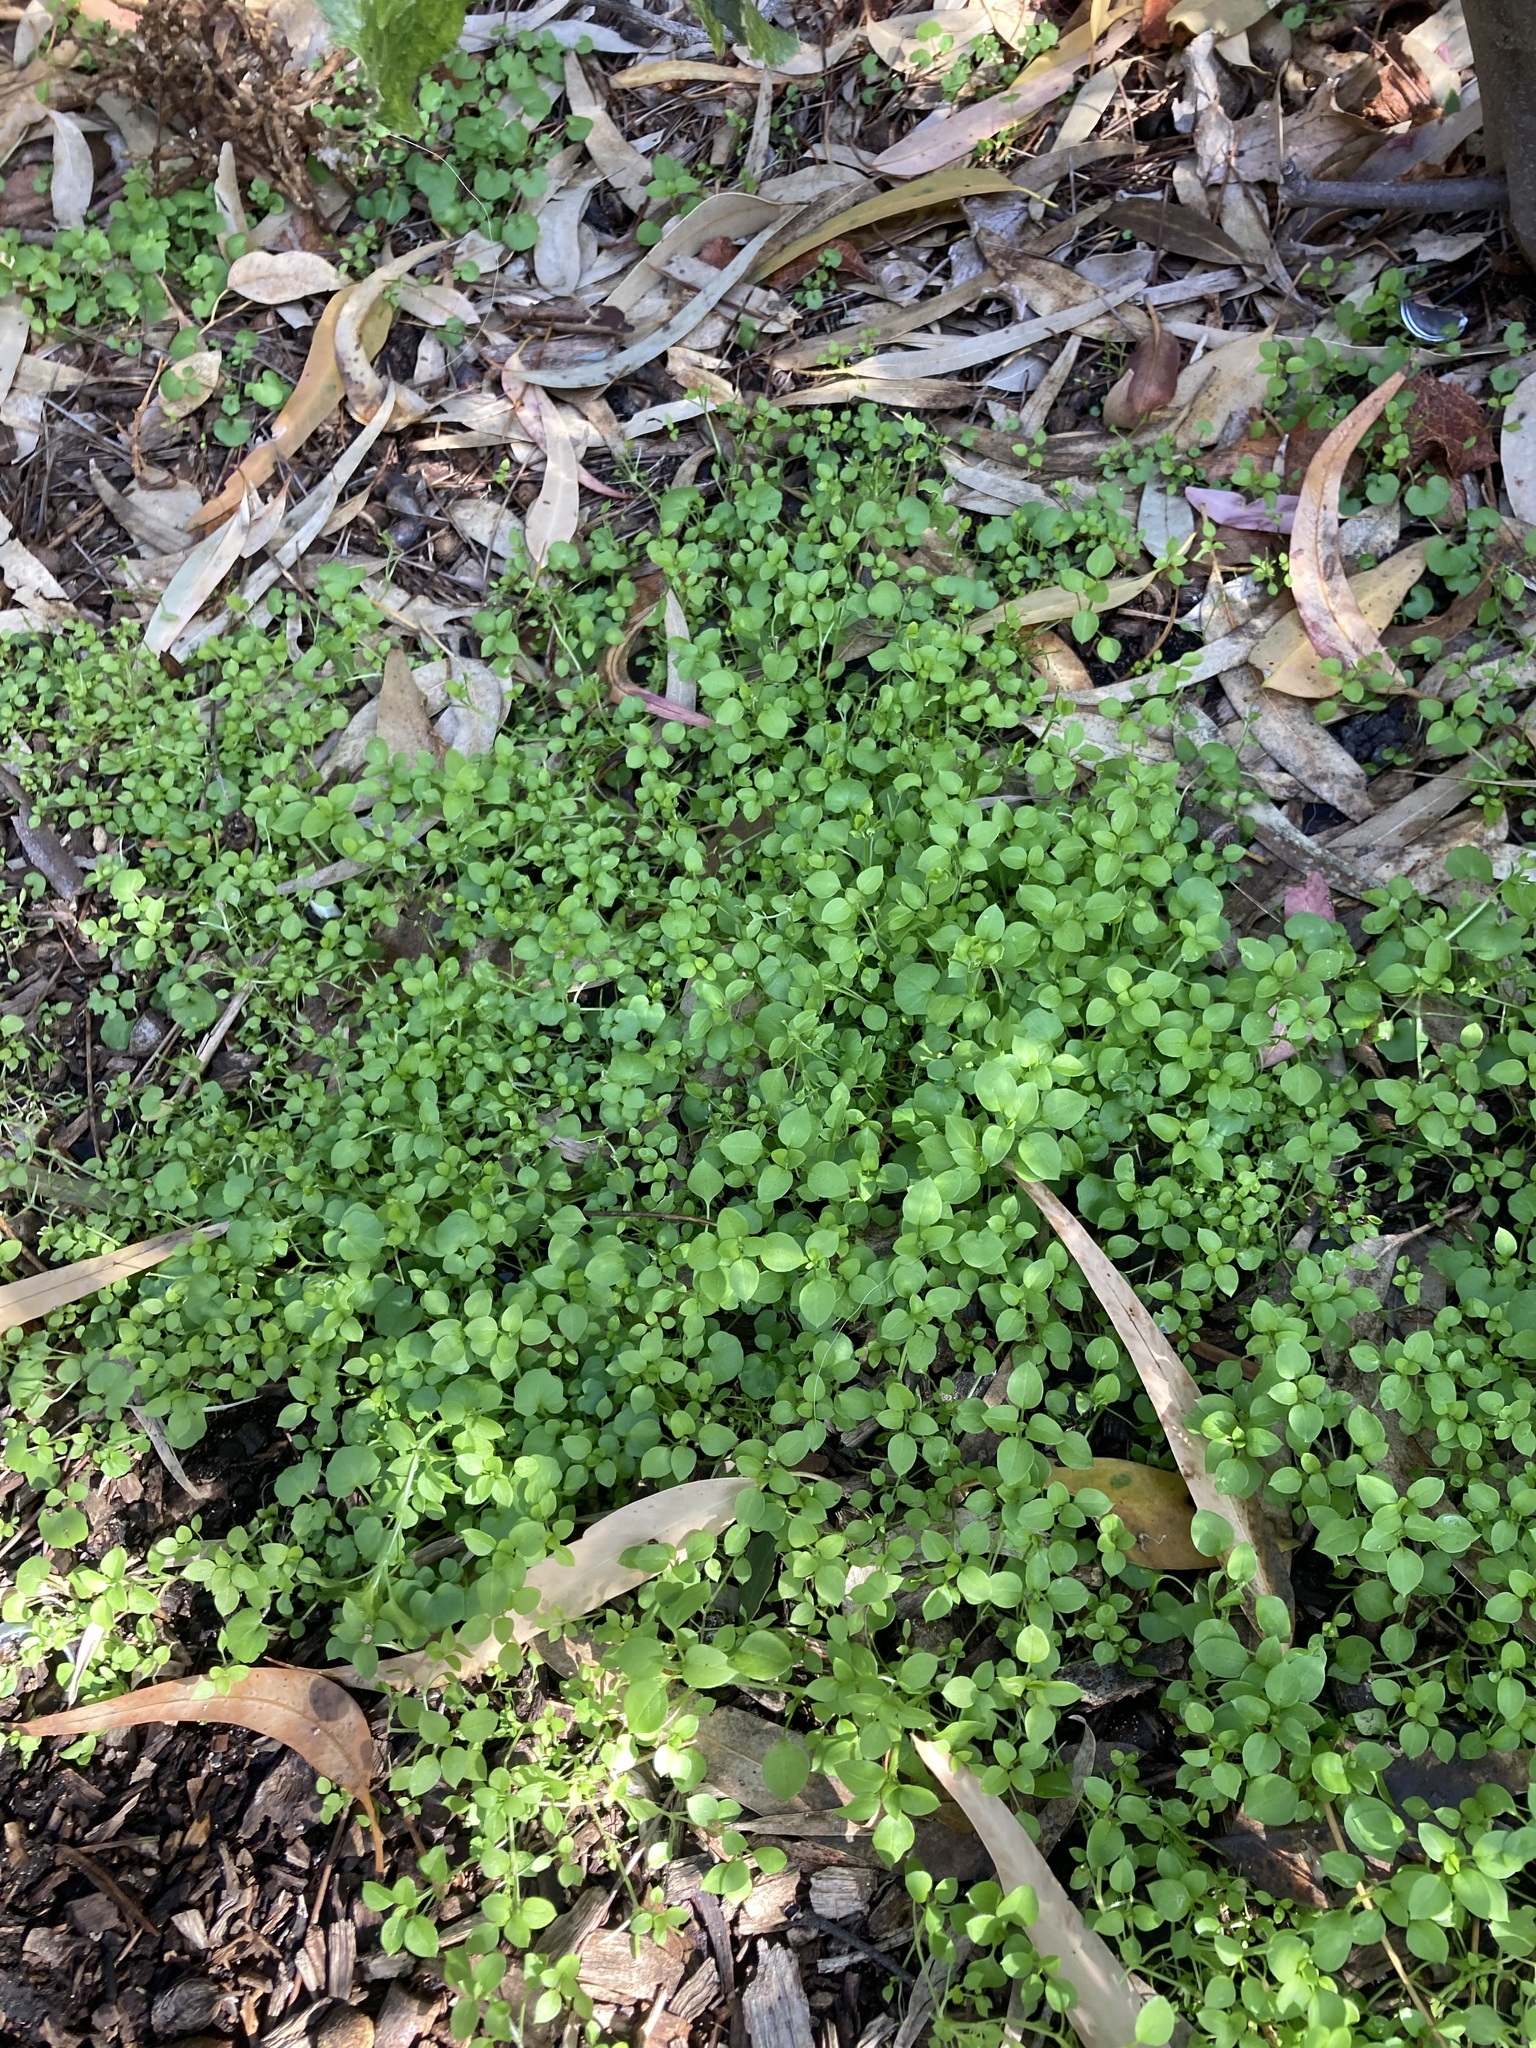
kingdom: Plantae
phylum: Tracheophyta
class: Magnoliopsida
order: Caryophyllales
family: Caryophyllaceae
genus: Stellaria
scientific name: Stellaria media
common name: Common chickweed
